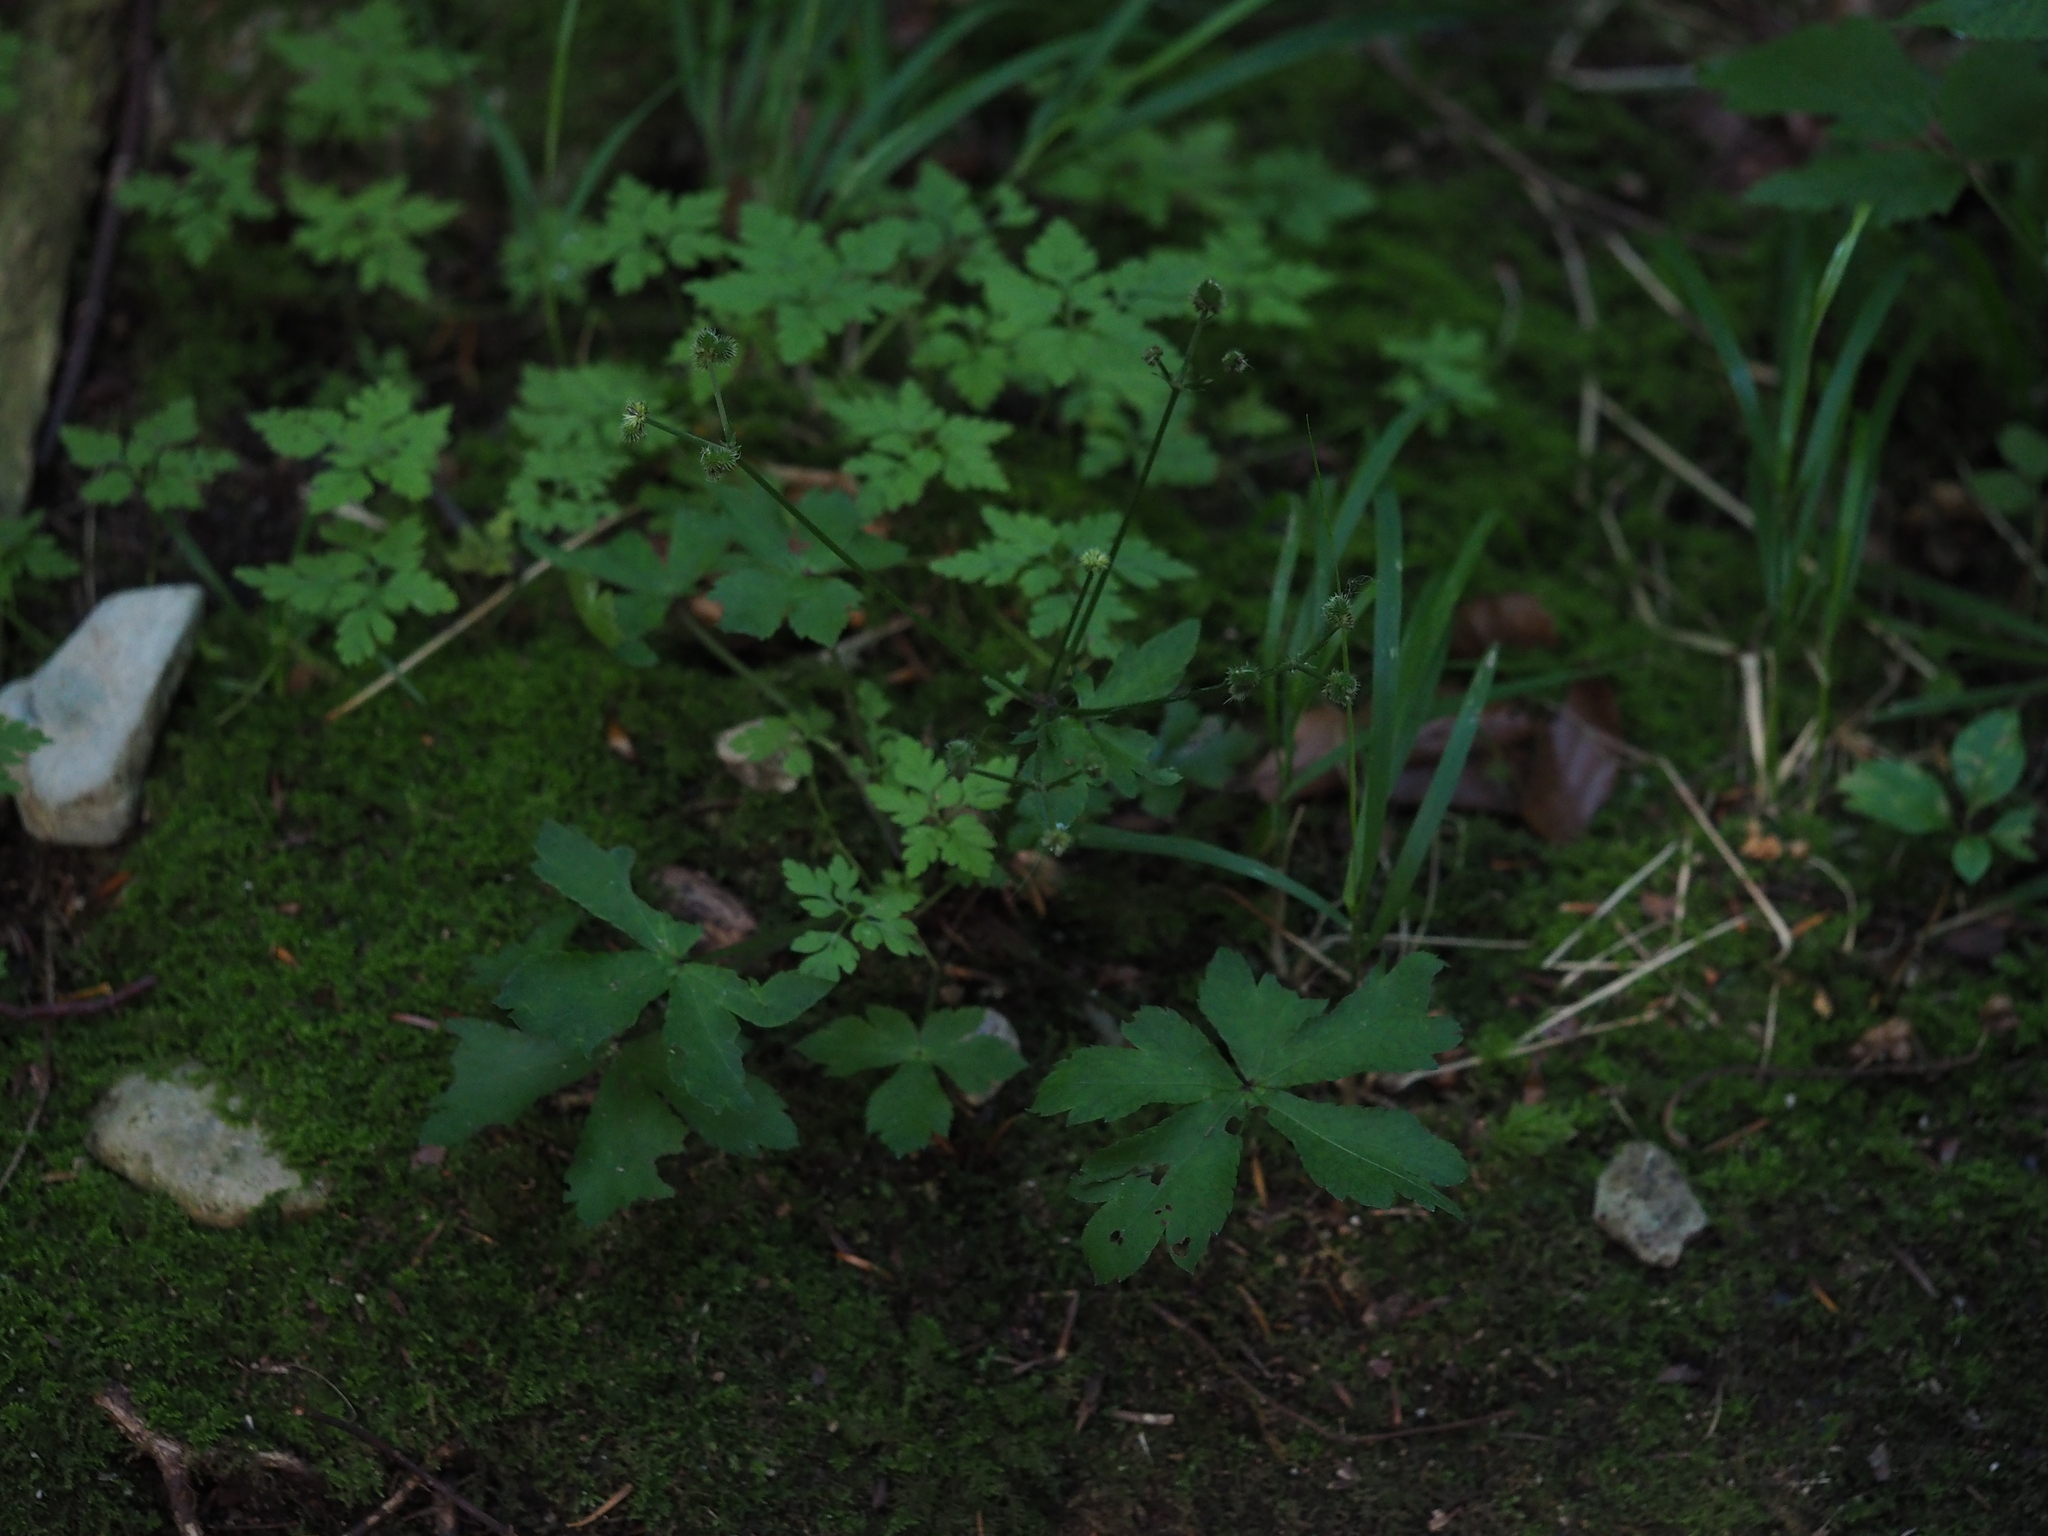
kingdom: Plantae
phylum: Tracheophyta
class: Magnoliopsida
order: Apiales
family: Apiaceae
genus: Sanicula
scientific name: Sanicula europaea
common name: Sanicle
